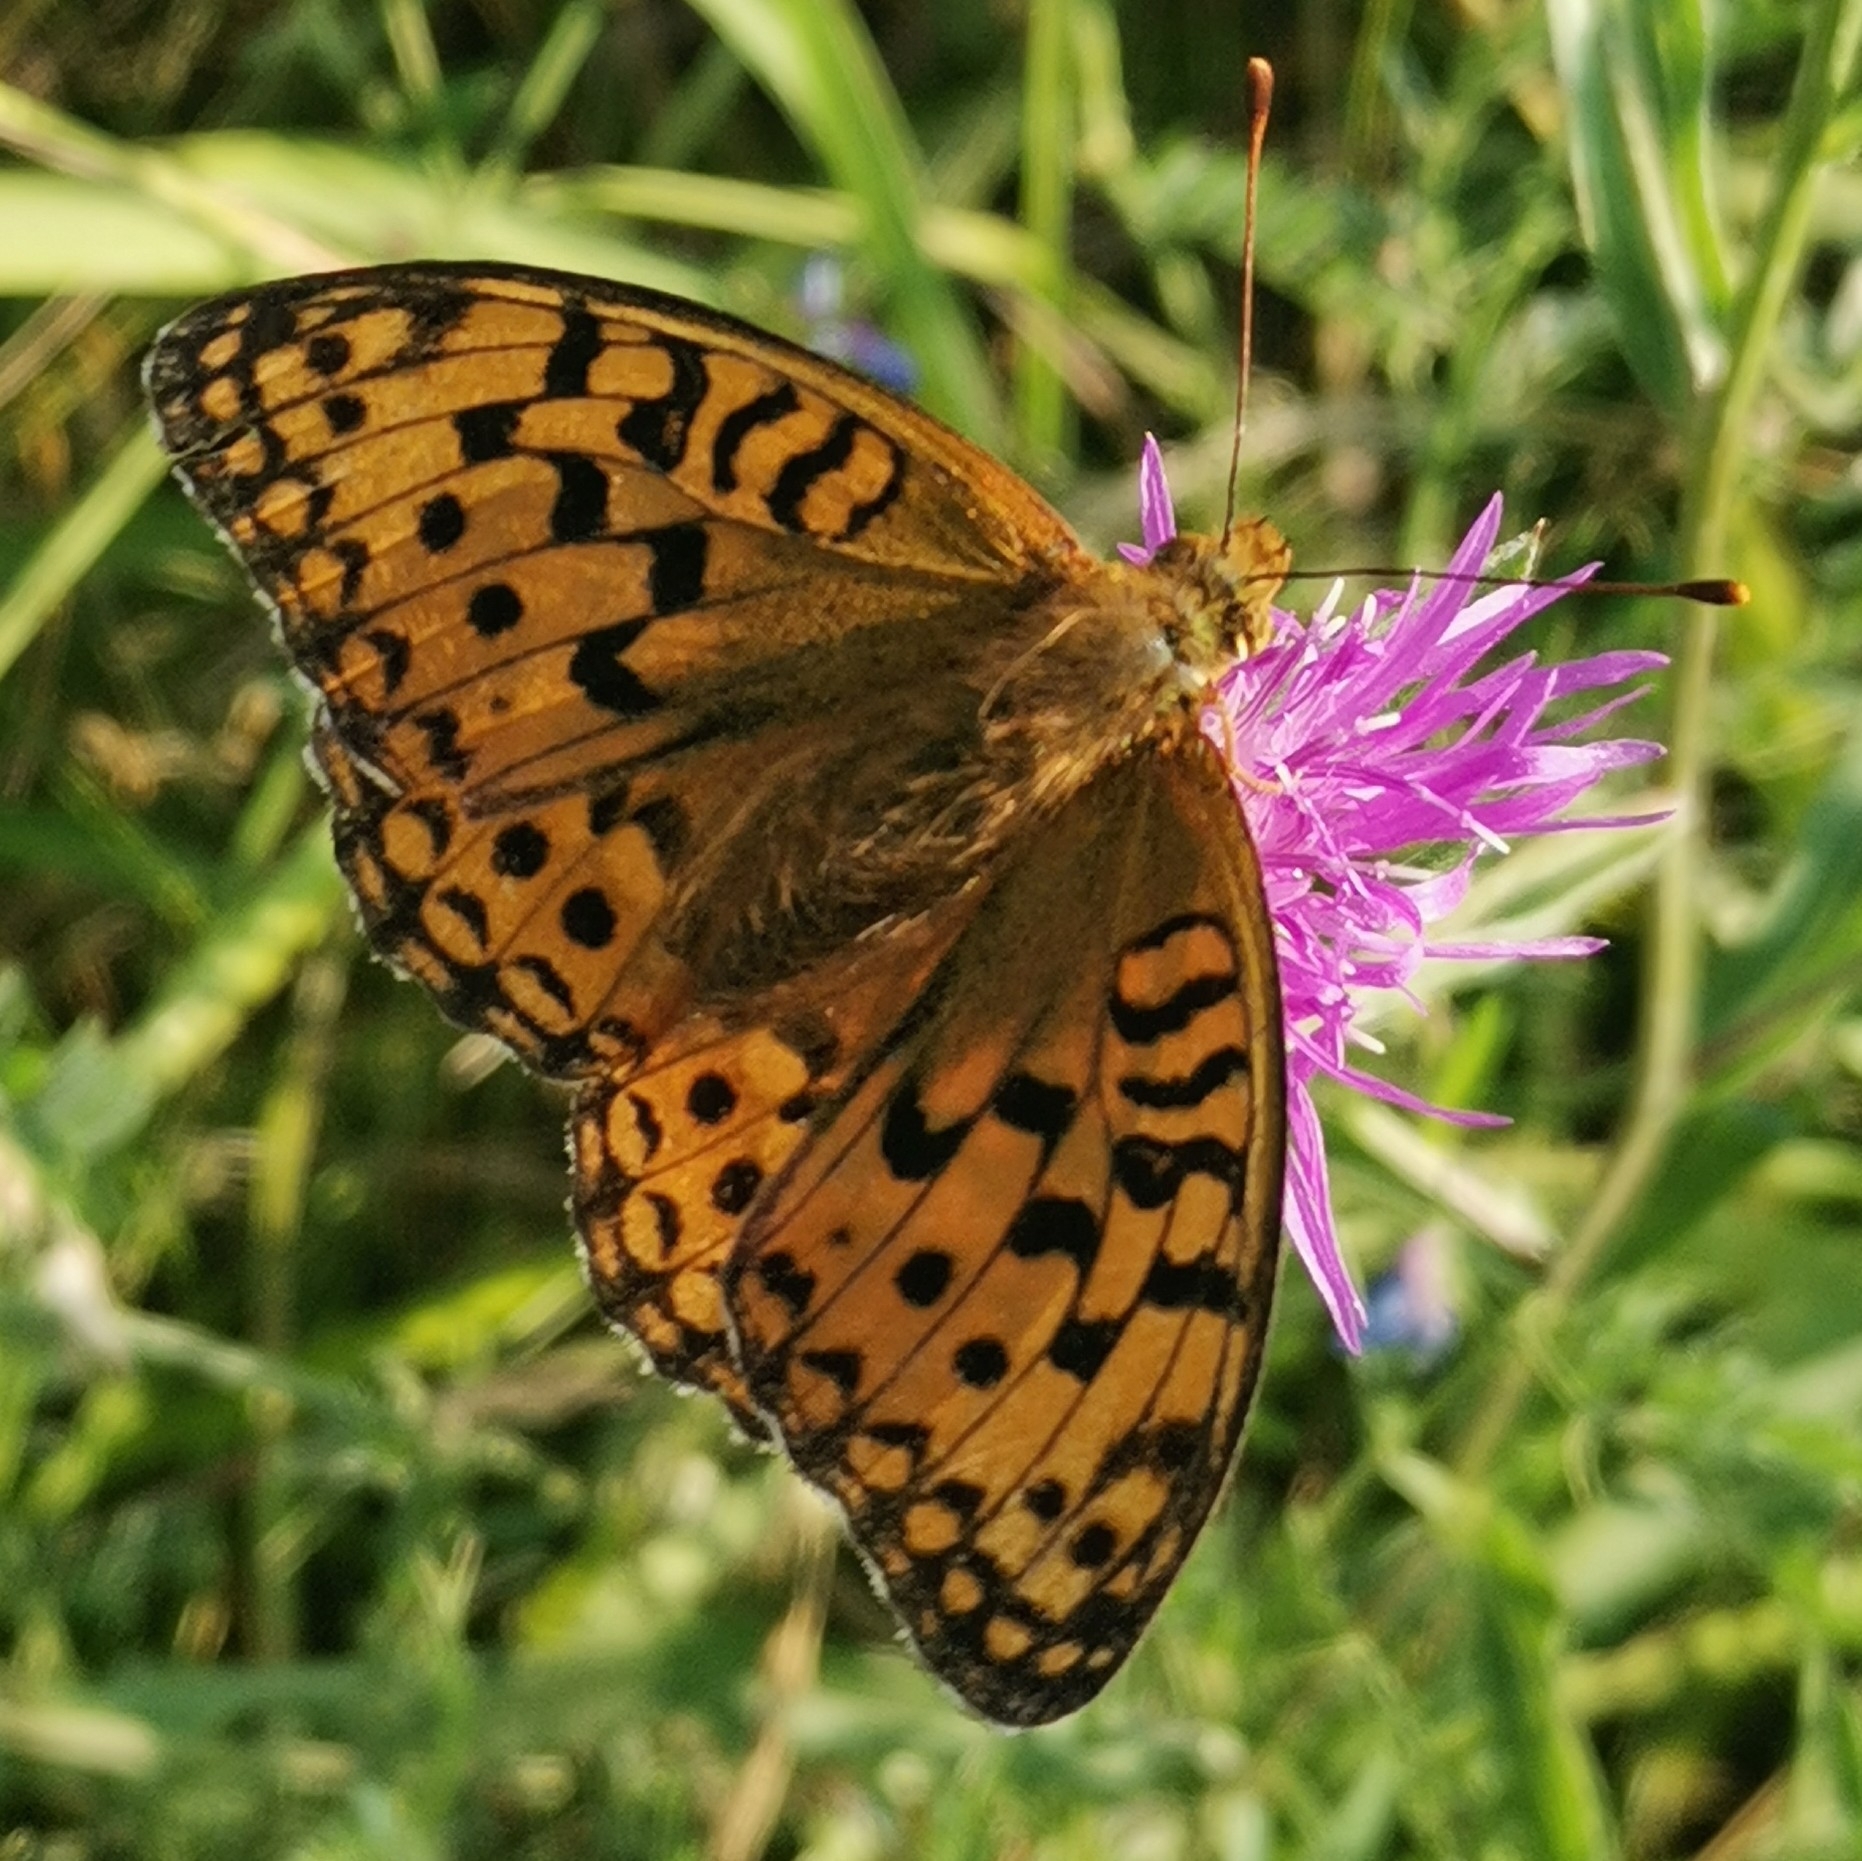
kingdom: Animalia
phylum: Arthropoda
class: Insecta
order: Lepidoptera
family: Nymphalidae
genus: Fabriciana
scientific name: Fabriciana adippe
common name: High brown fritillary
